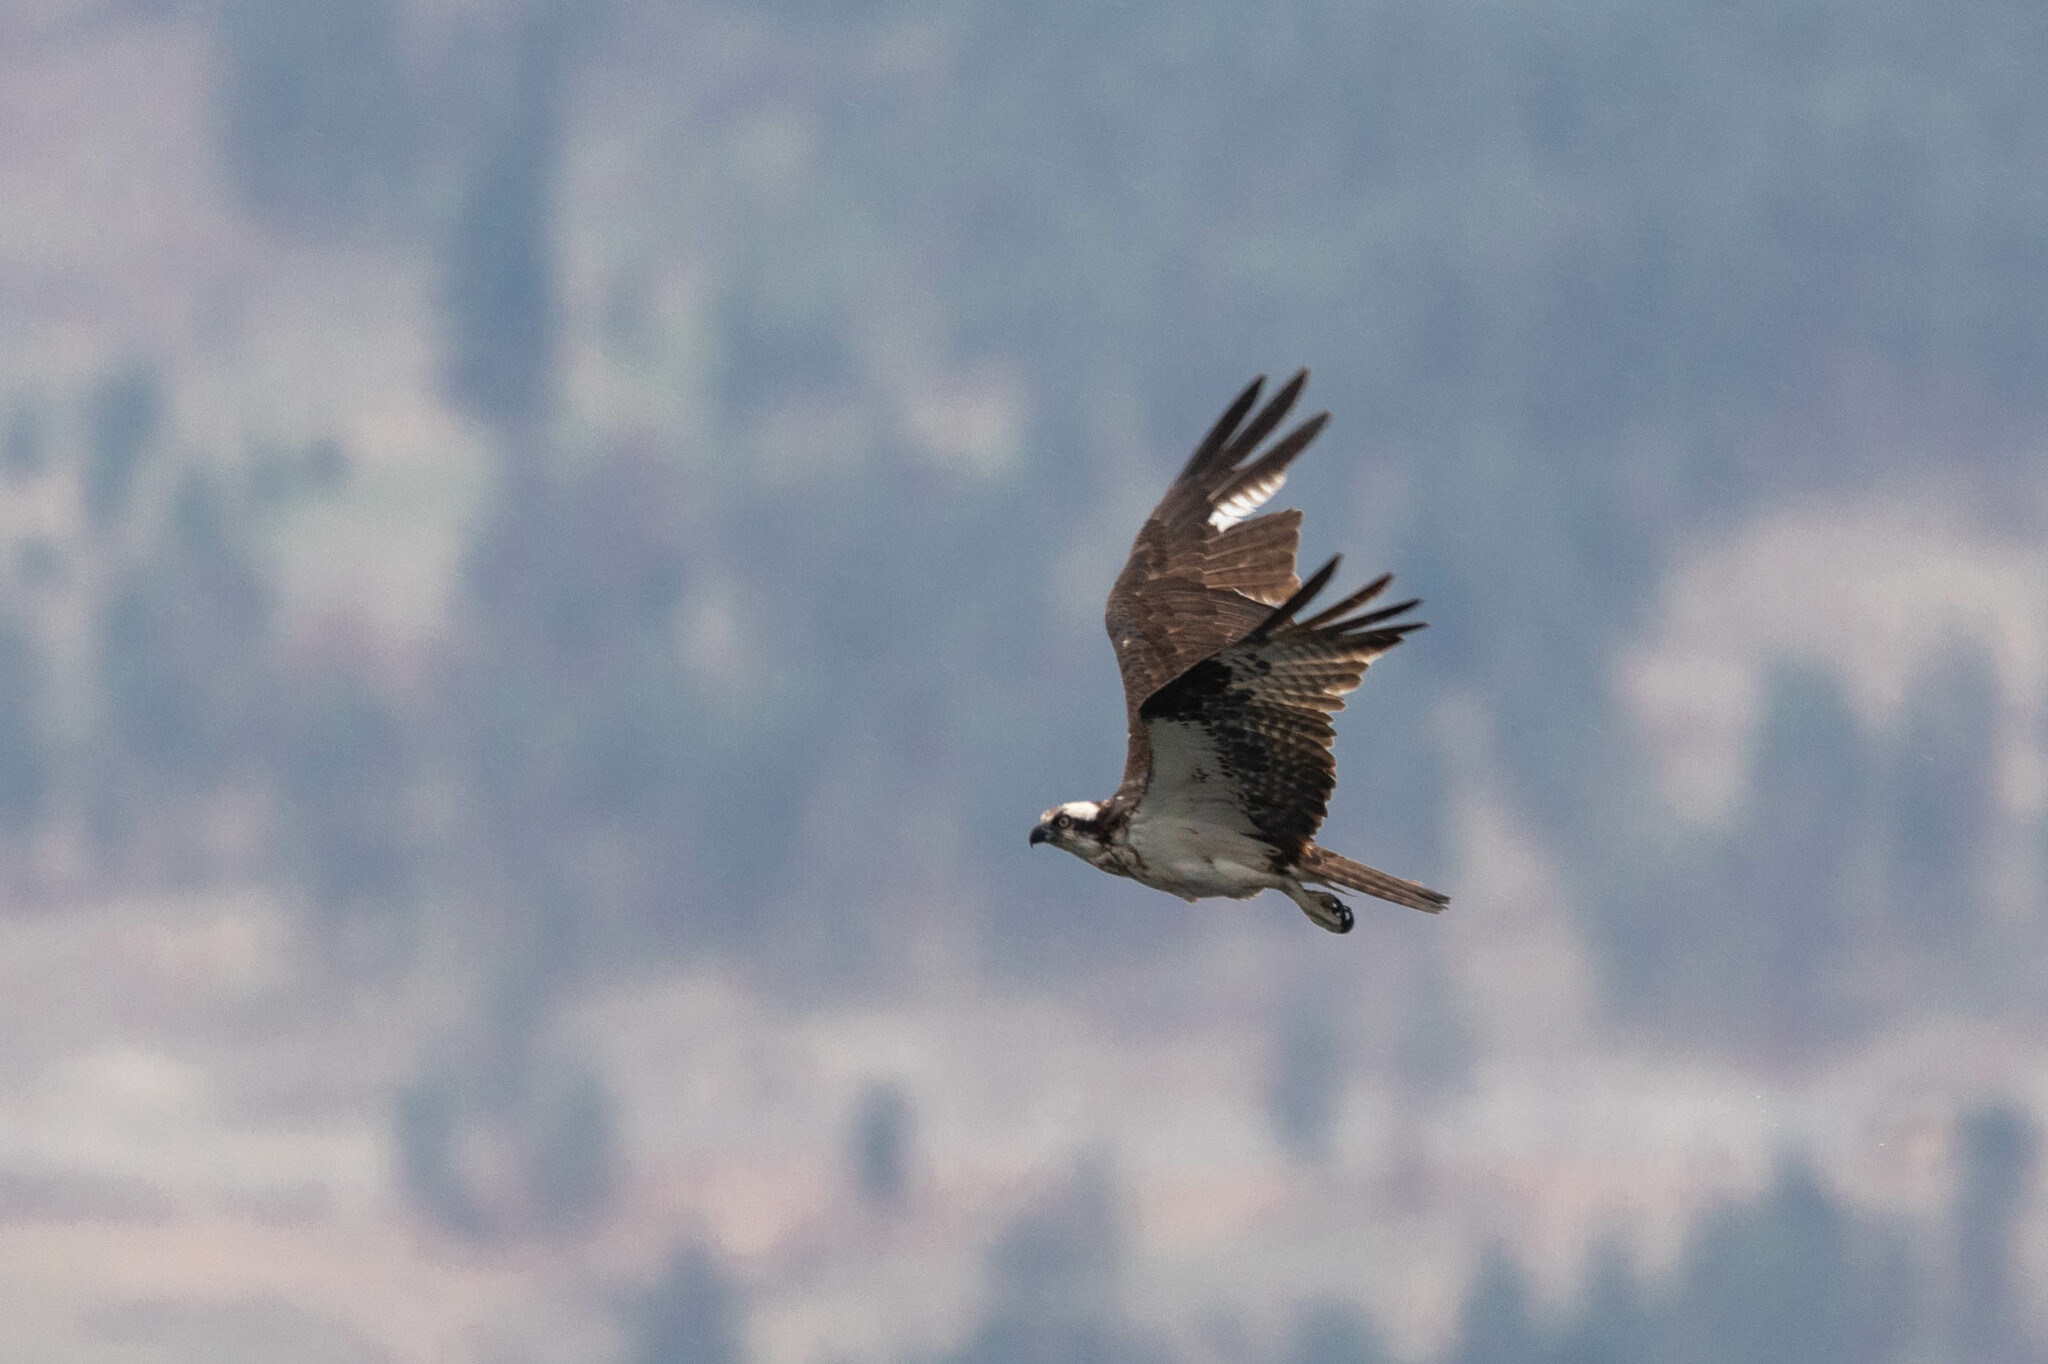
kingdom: Animalia
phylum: Chordata
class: Aves
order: Accipitriformes
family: Pandionidae
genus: Pandion
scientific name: Pandion haliaetus
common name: Osprey
